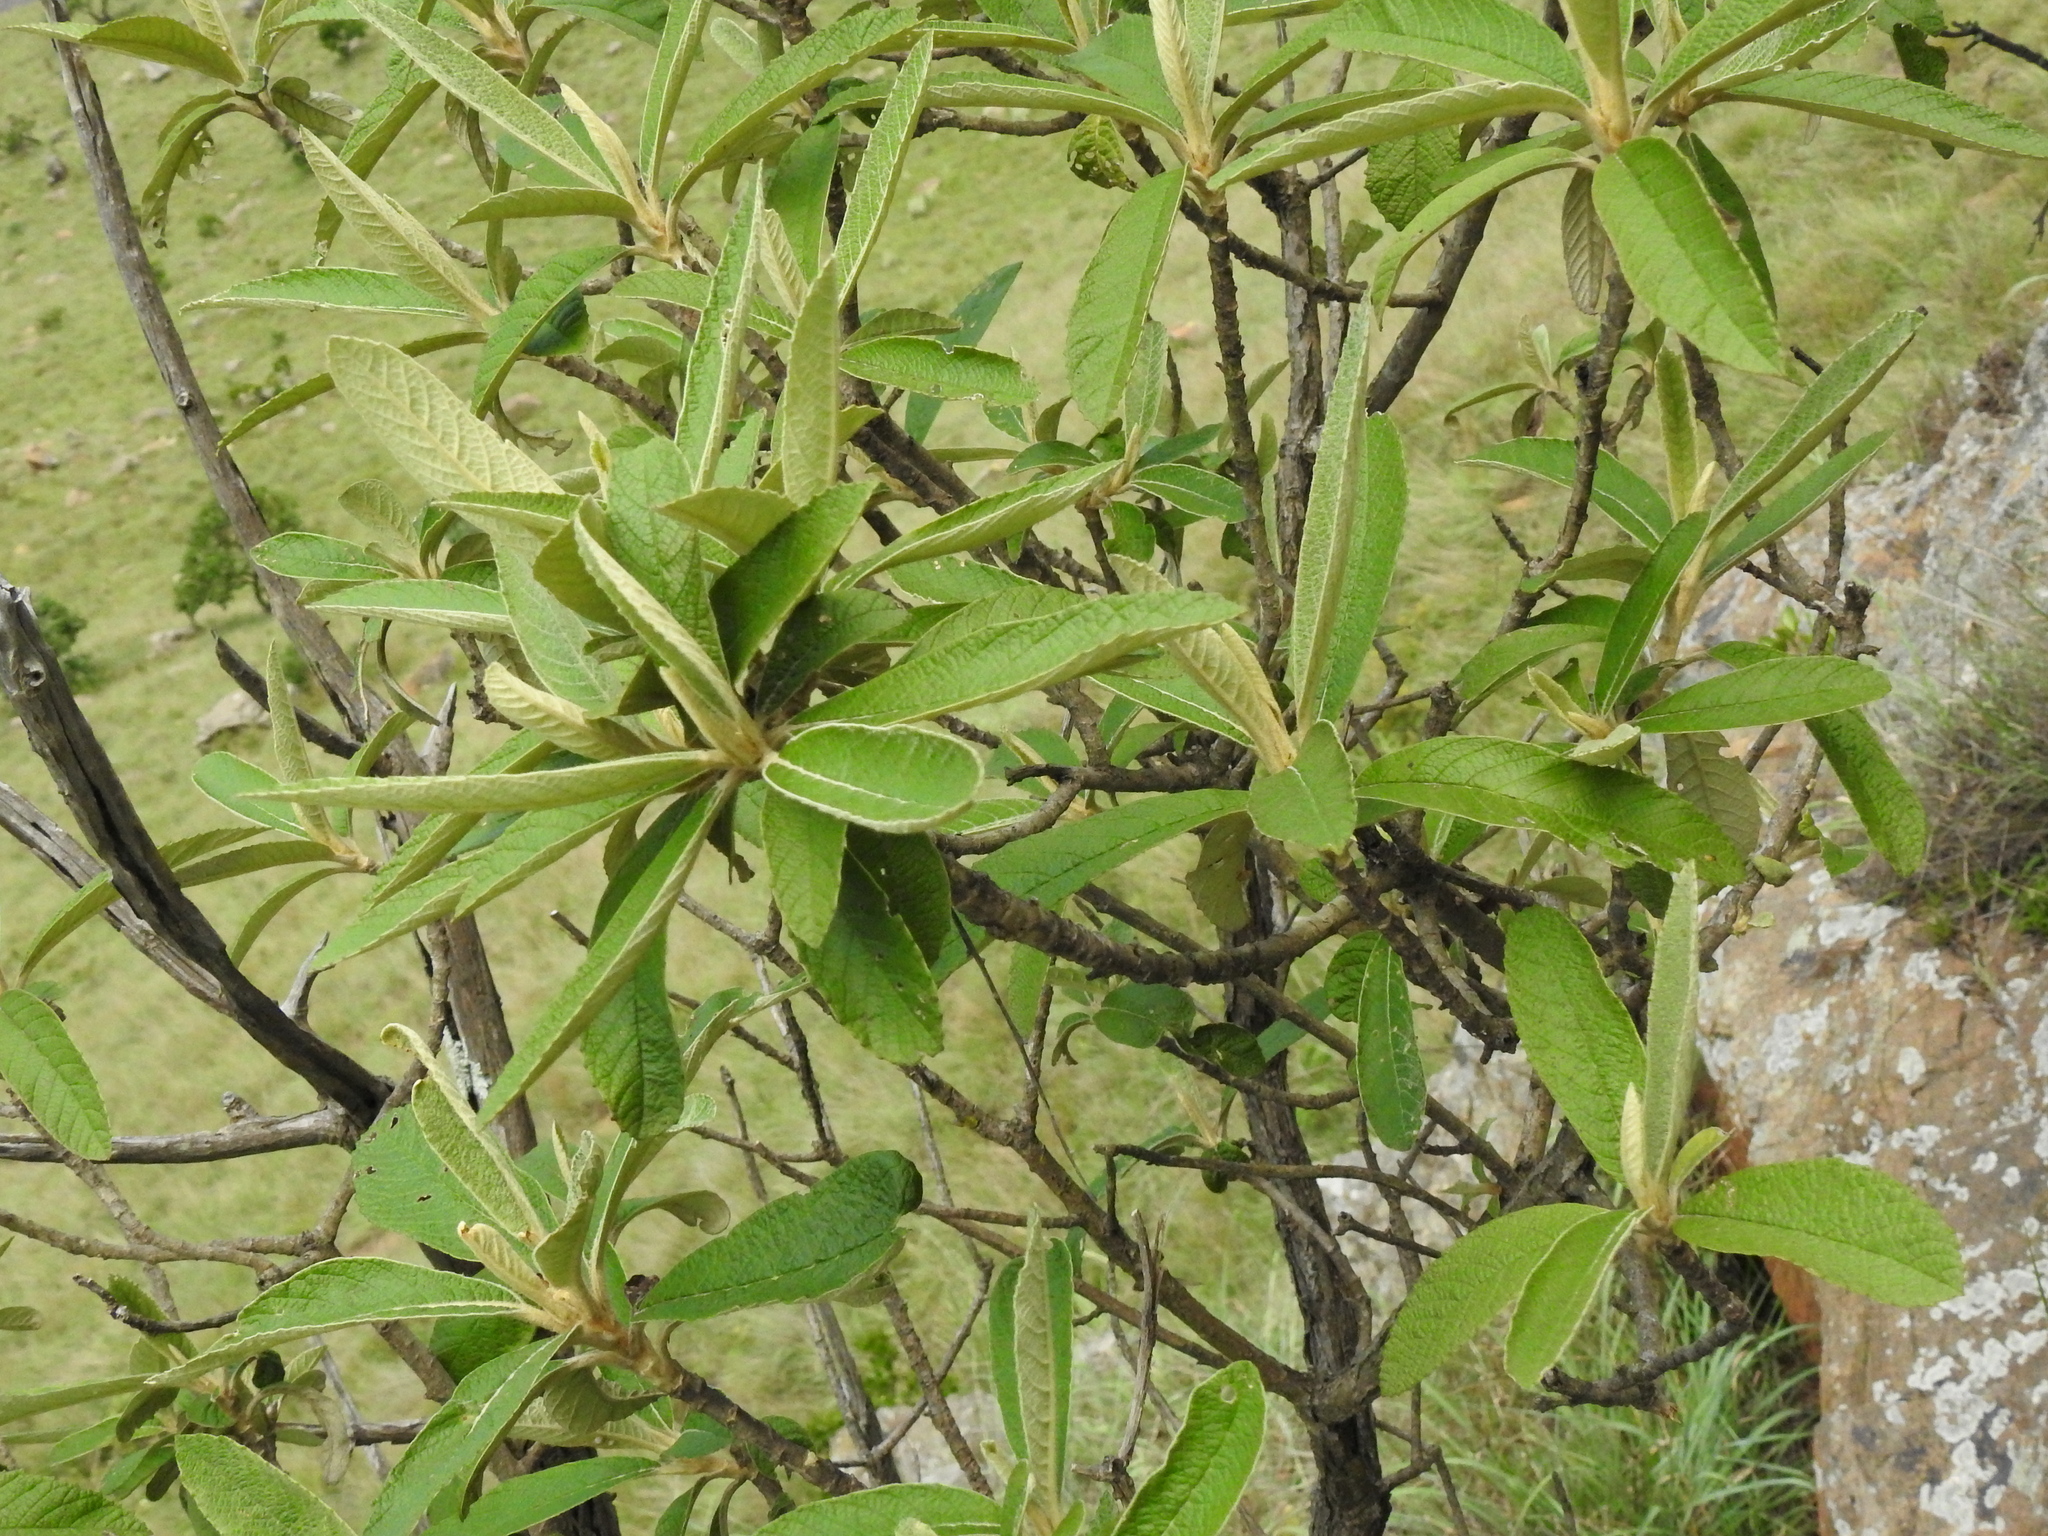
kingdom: Plantae
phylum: Tracheophyta
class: Magnoliopsida
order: Asterales
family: Asteraceae
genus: Tarchonanthus
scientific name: Tarchonanthus trilobus
